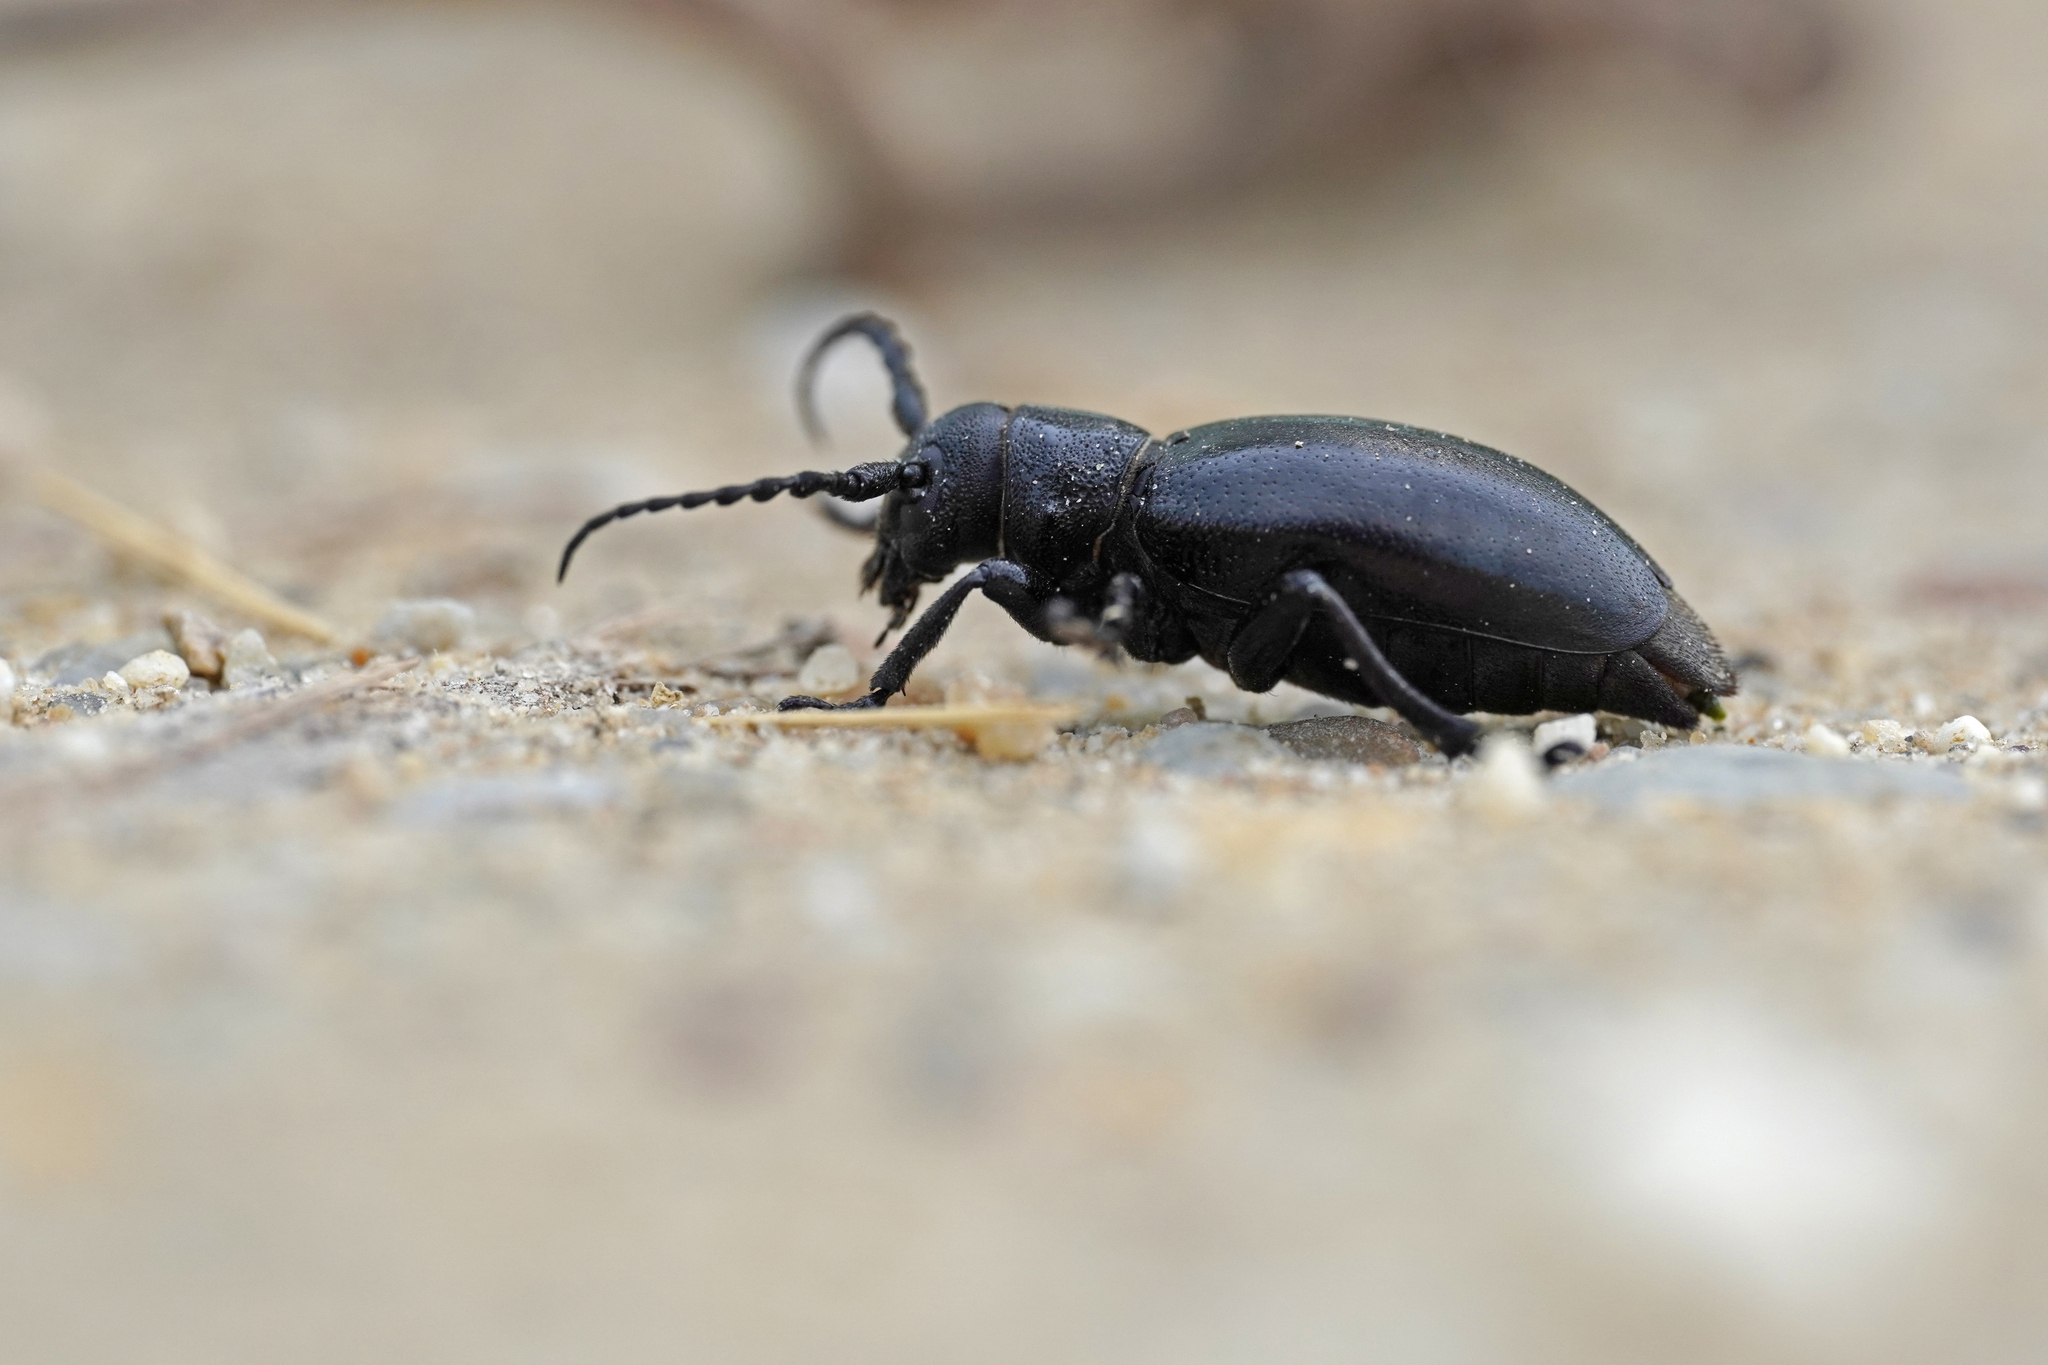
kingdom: Animalia
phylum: Arthropoda
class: Insecta
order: Coleoptera
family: Cerambycidae
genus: Dorcadion
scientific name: Dorcadion aethiops
